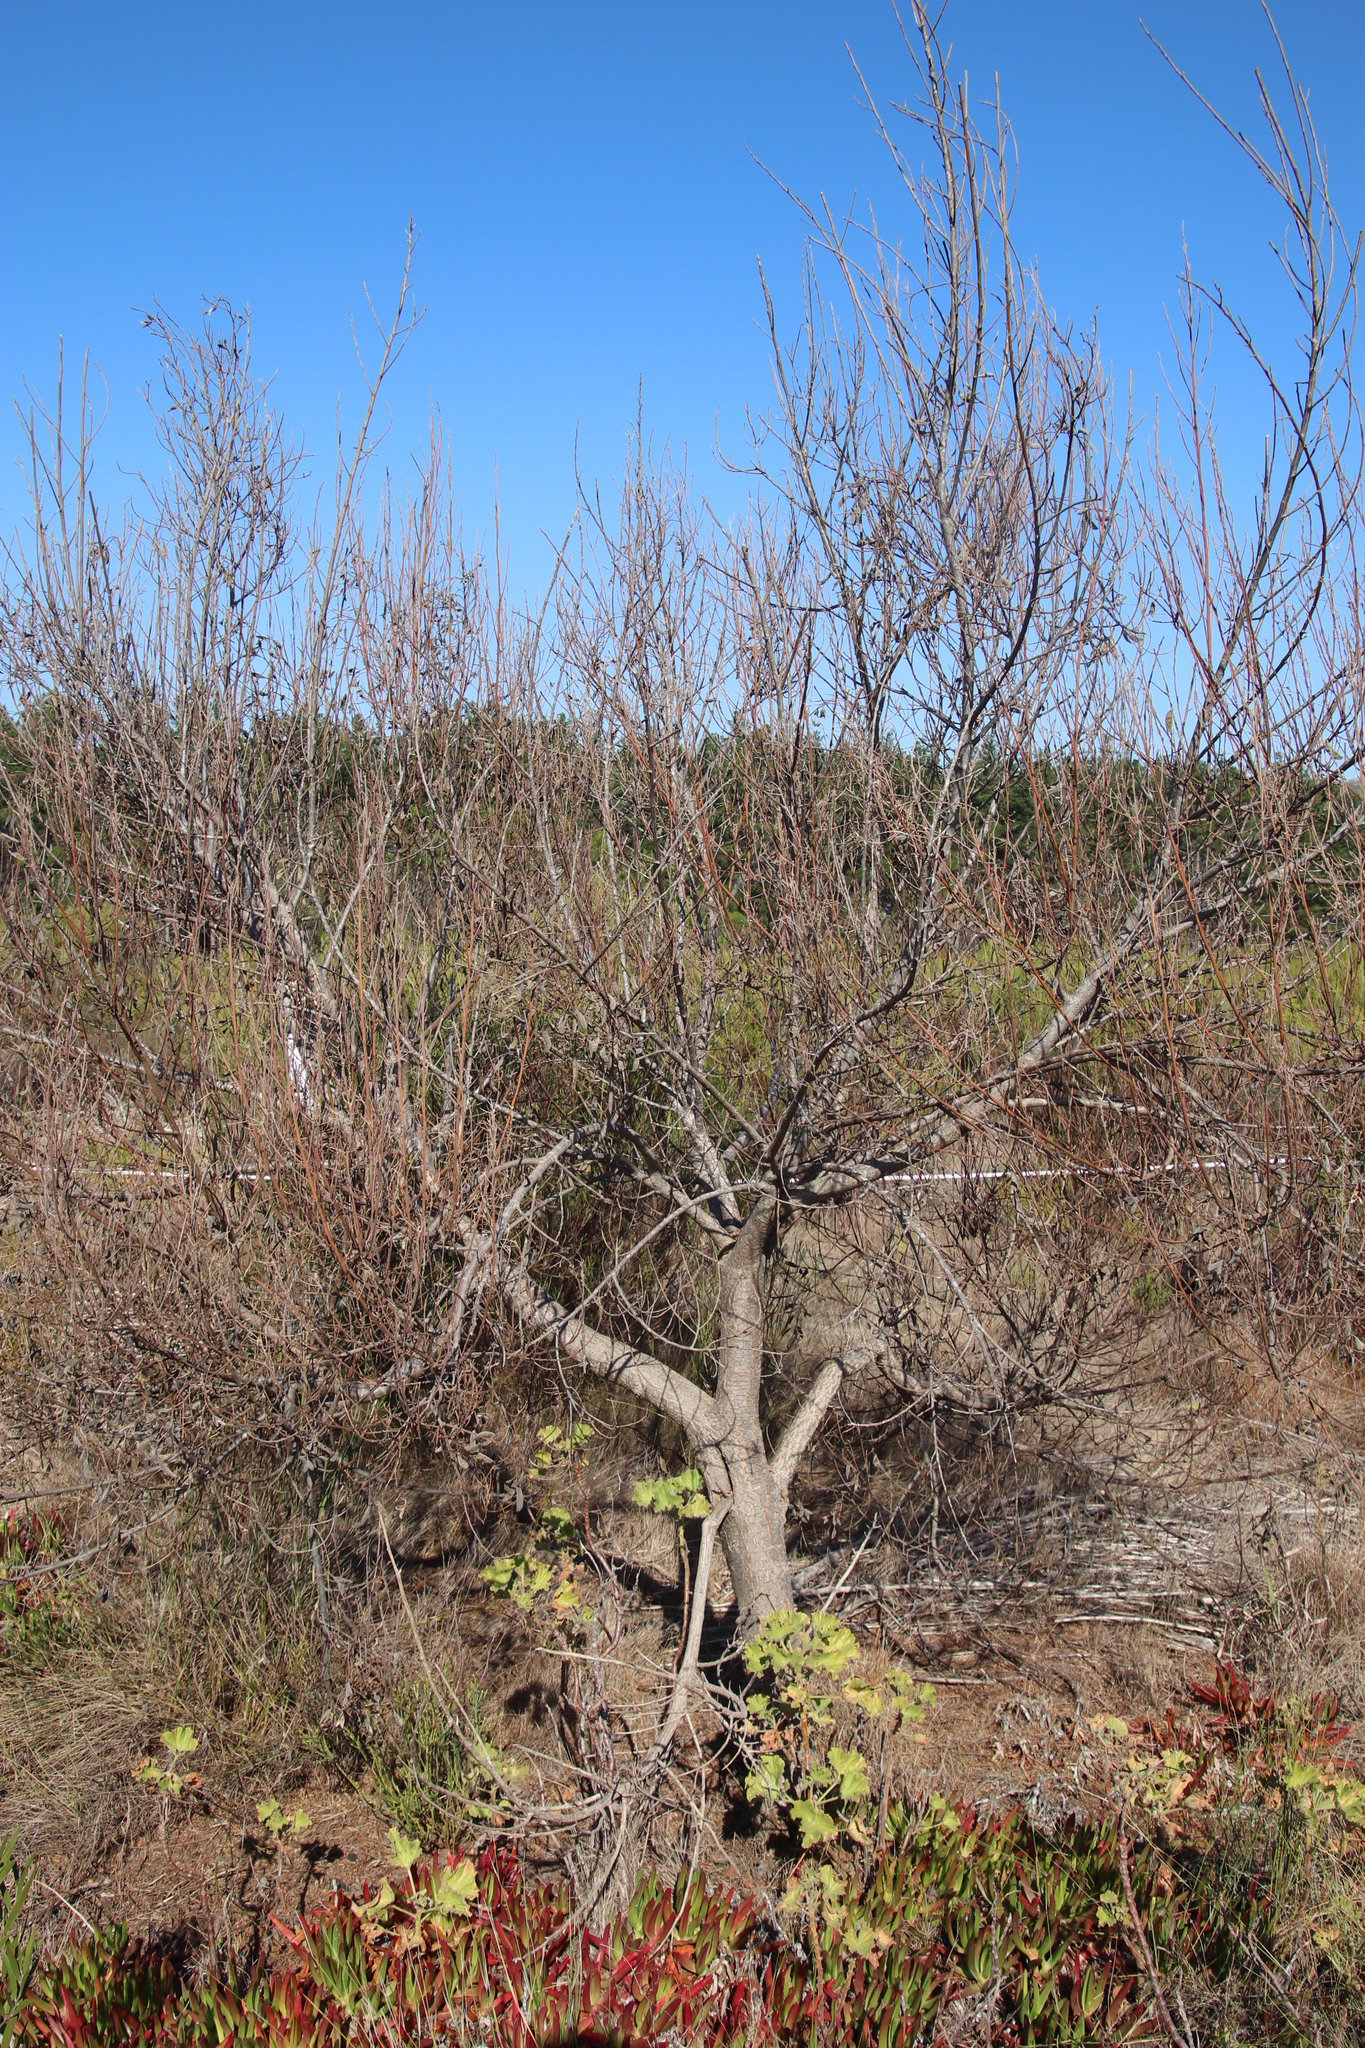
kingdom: Plantae
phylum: Tracheophyta
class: Magnoliopsida
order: Fabales
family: Fabaceae
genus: Virgilia
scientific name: Virgilia oroboides
